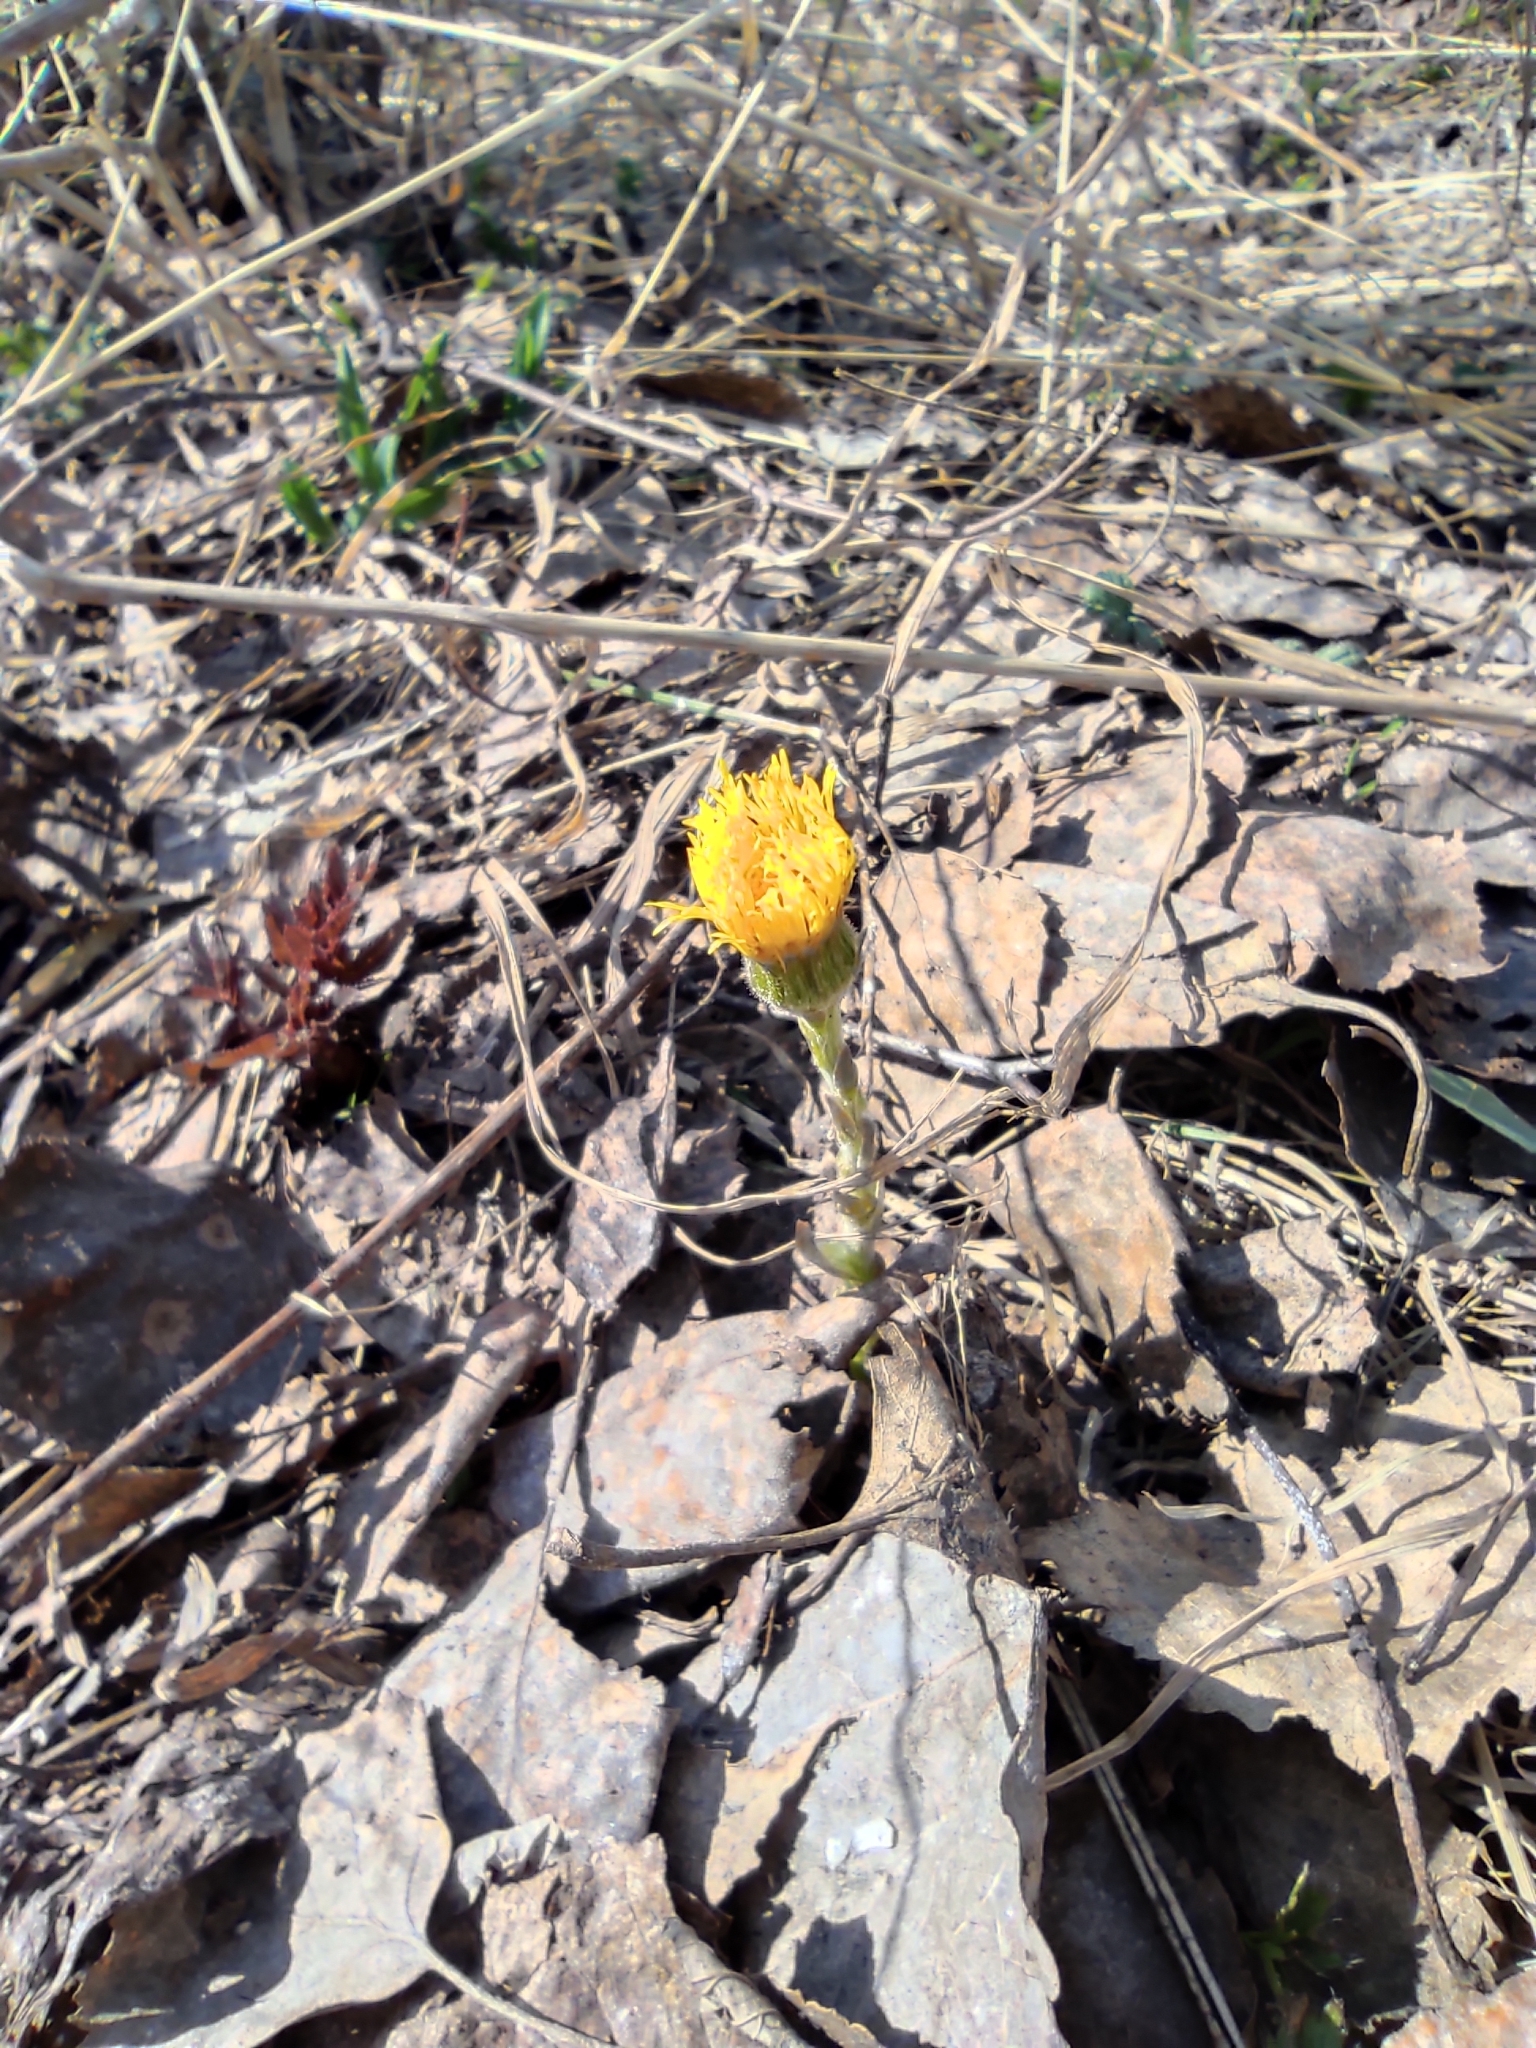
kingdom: Plantae
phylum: Tracheophyta
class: Magnoliopsida
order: Asterales
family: Asteraceae
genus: Tussilago
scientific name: Tussilago farfara
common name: Coltsfoot
